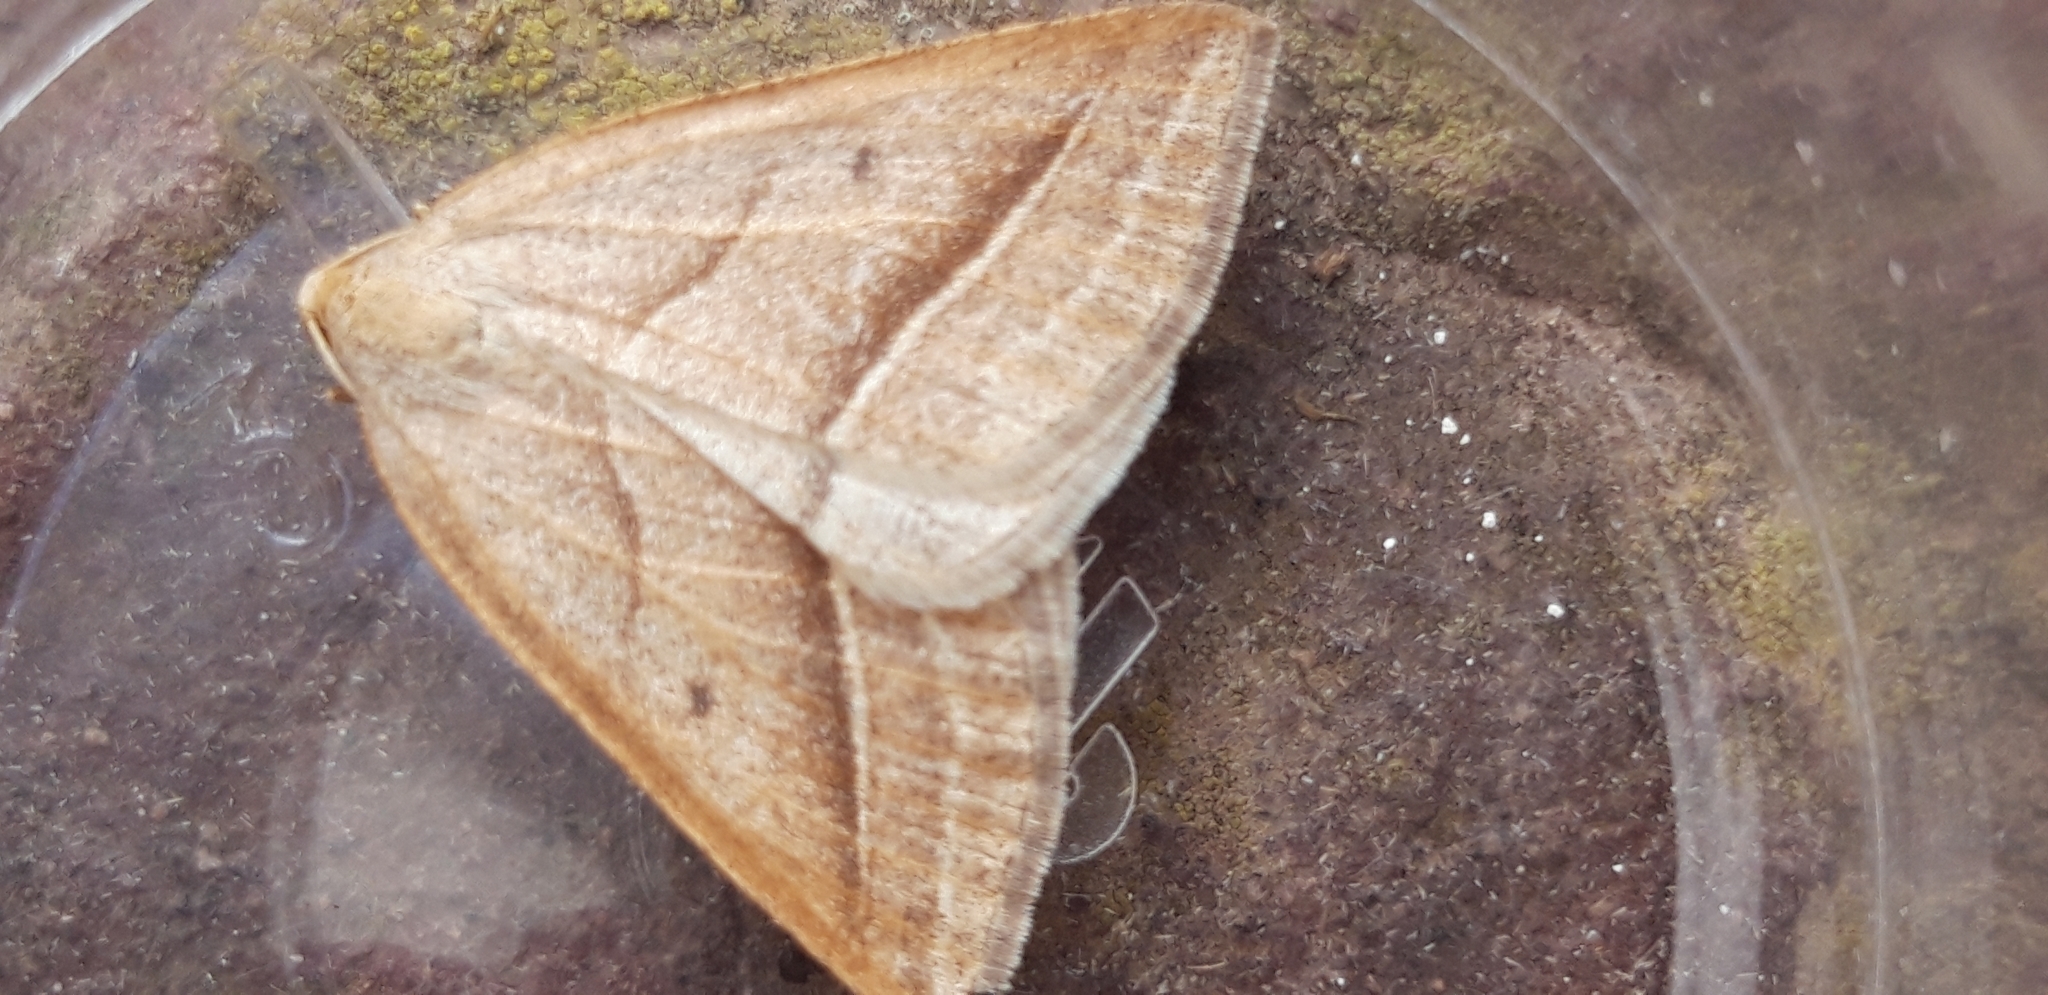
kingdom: Animalia
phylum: Arthropoda
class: Insecta
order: Lepidoptera
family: Pterophoridae
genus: Pterophorus
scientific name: Pterophorus Petrophora chlorosata
